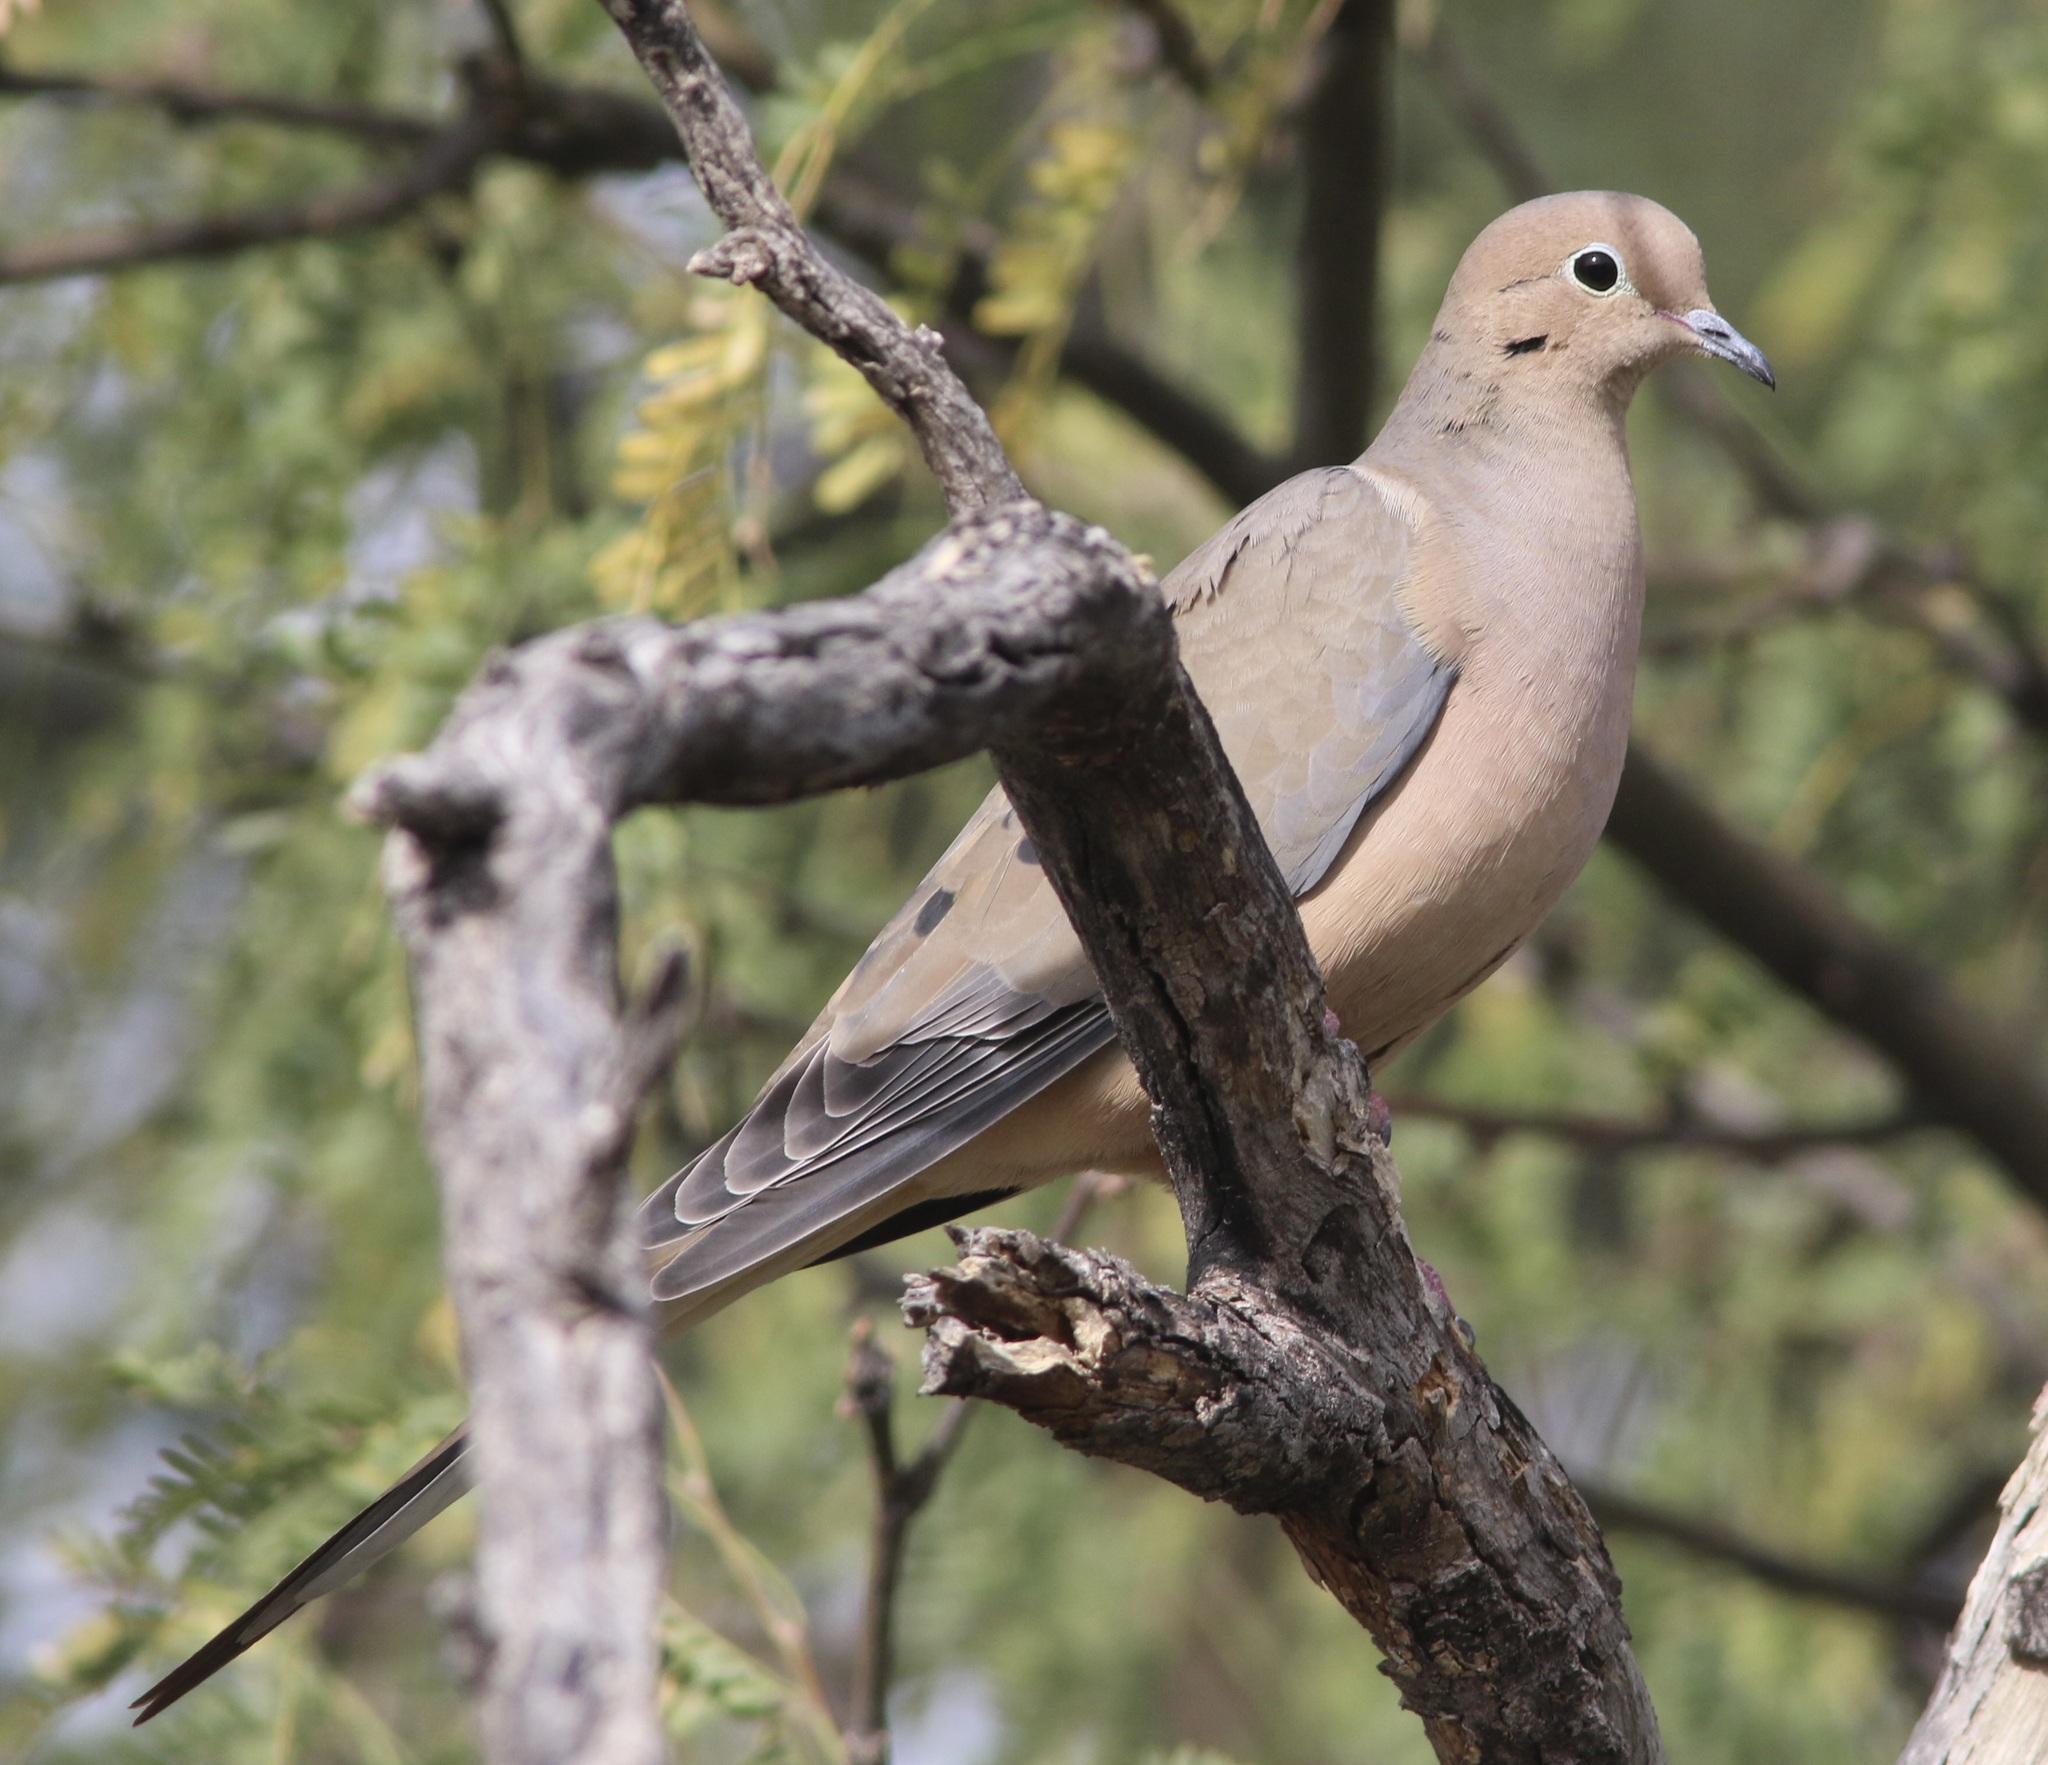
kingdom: Animalia
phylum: Chordata
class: Aves
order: Columbiformes
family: Columbidae
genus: Zenaida
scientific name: Zenaida macroura
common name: Mourning dove
